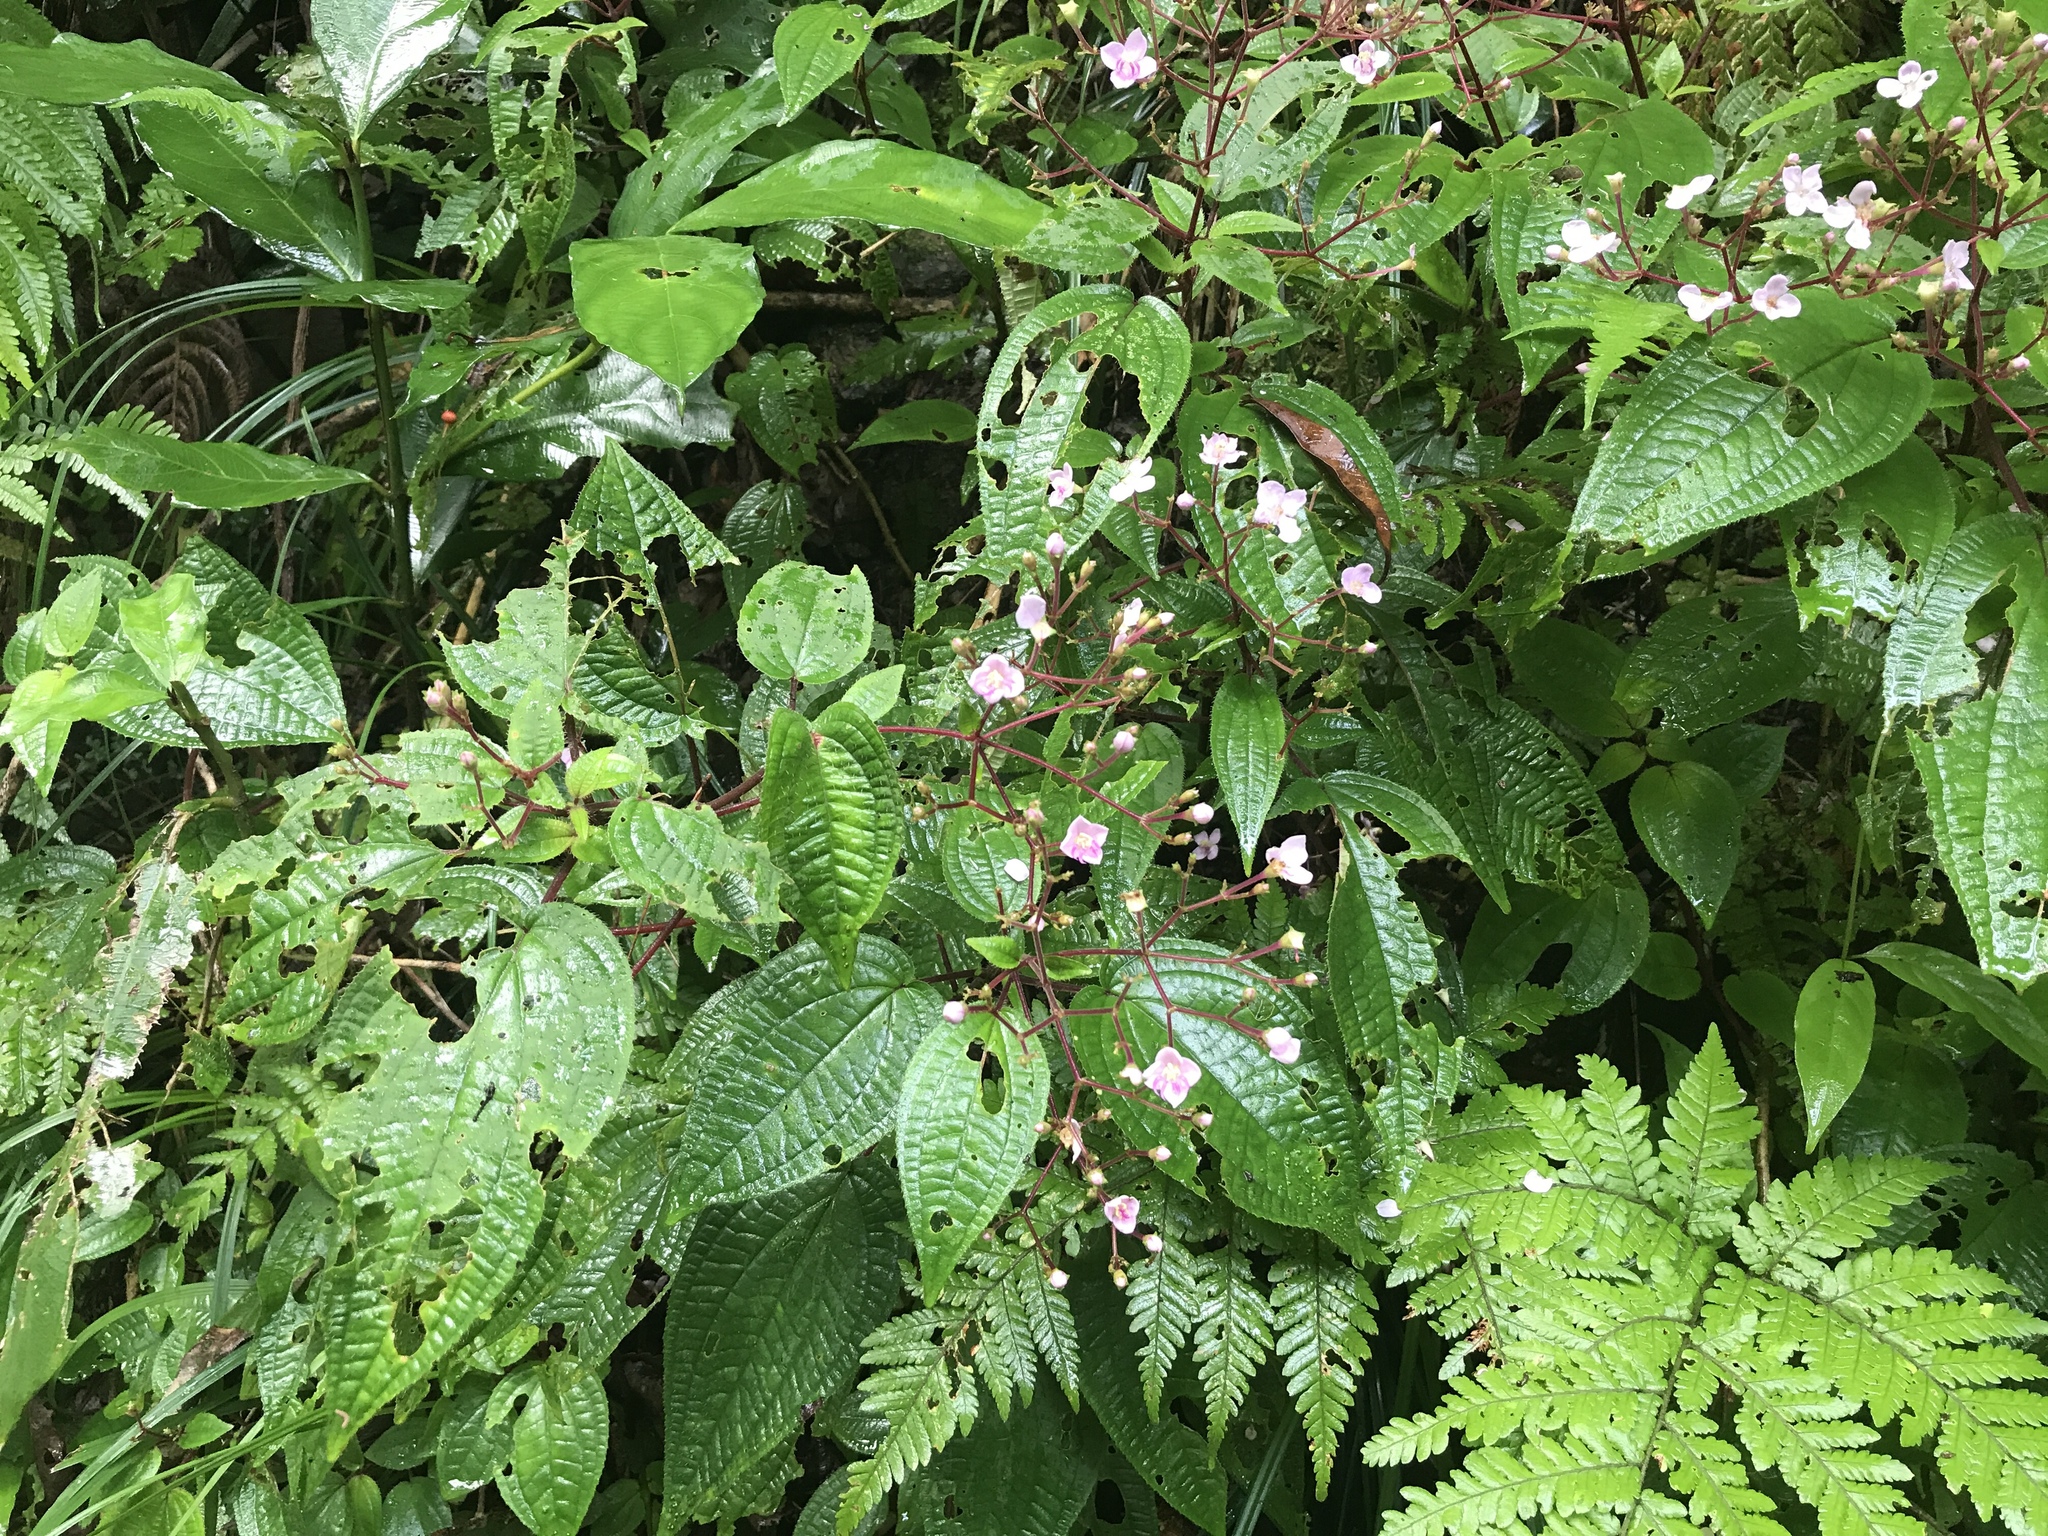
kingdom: Plantae
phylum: Tracheophyta
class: Magnoliopsida
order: Myrtales
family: Melastomataceae
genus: Bredia
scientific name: Bredia hirsuta
